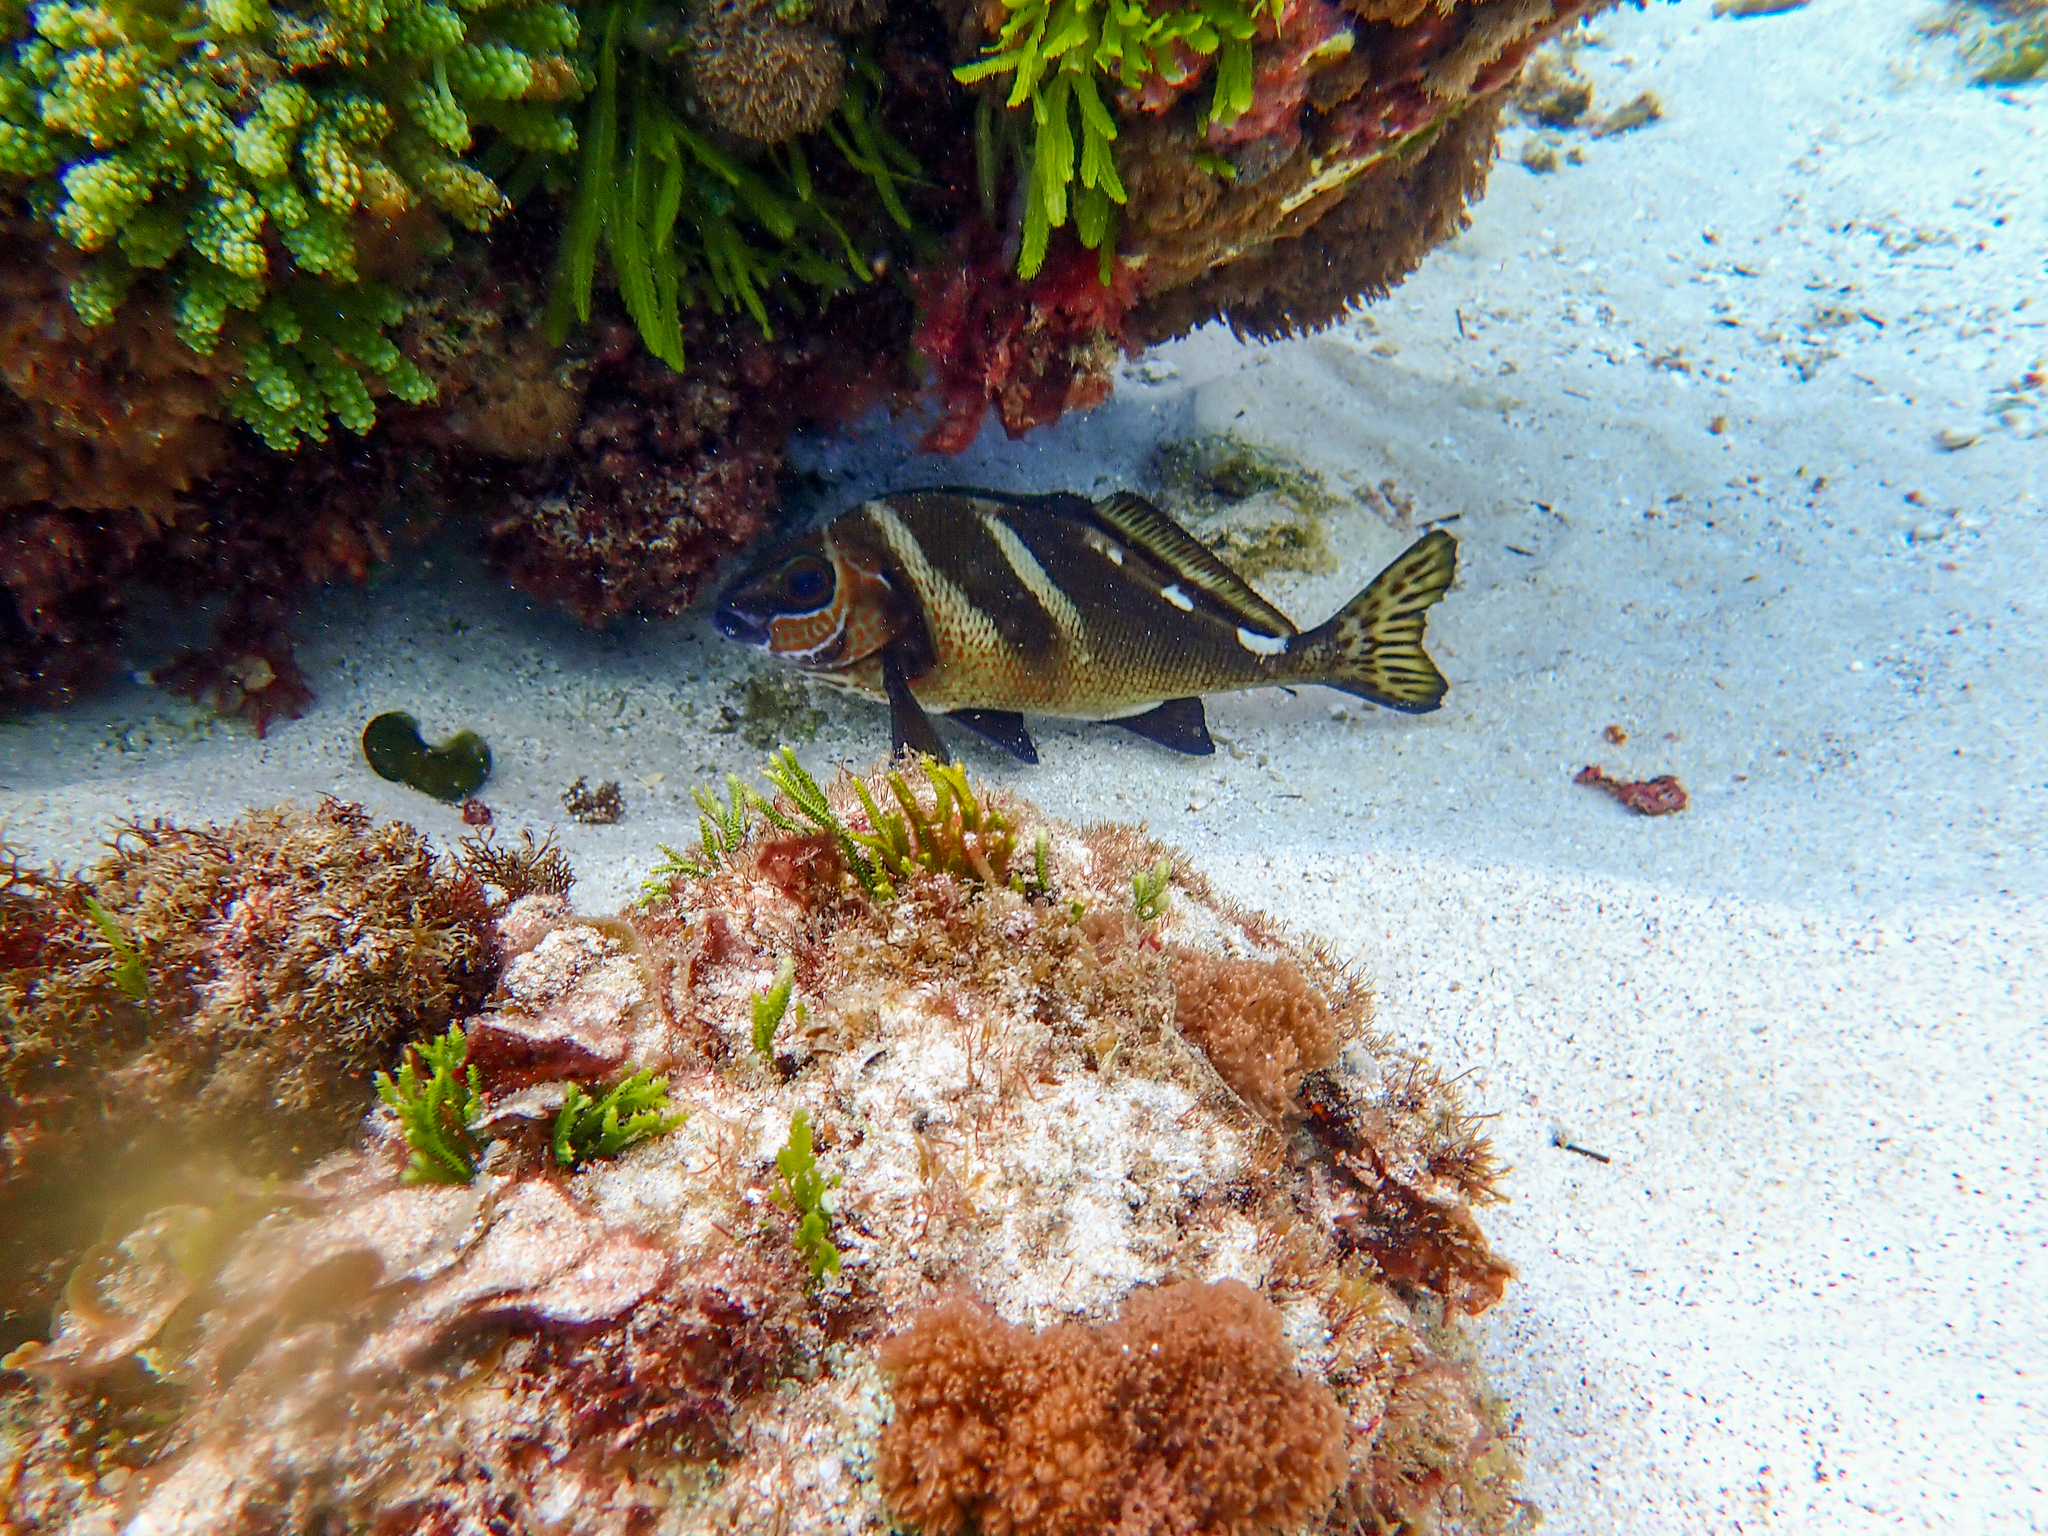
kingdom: Animalia
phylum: Chordata
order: Perciformes
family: Latridae
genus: Morwong
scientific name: Morwong ephippium
